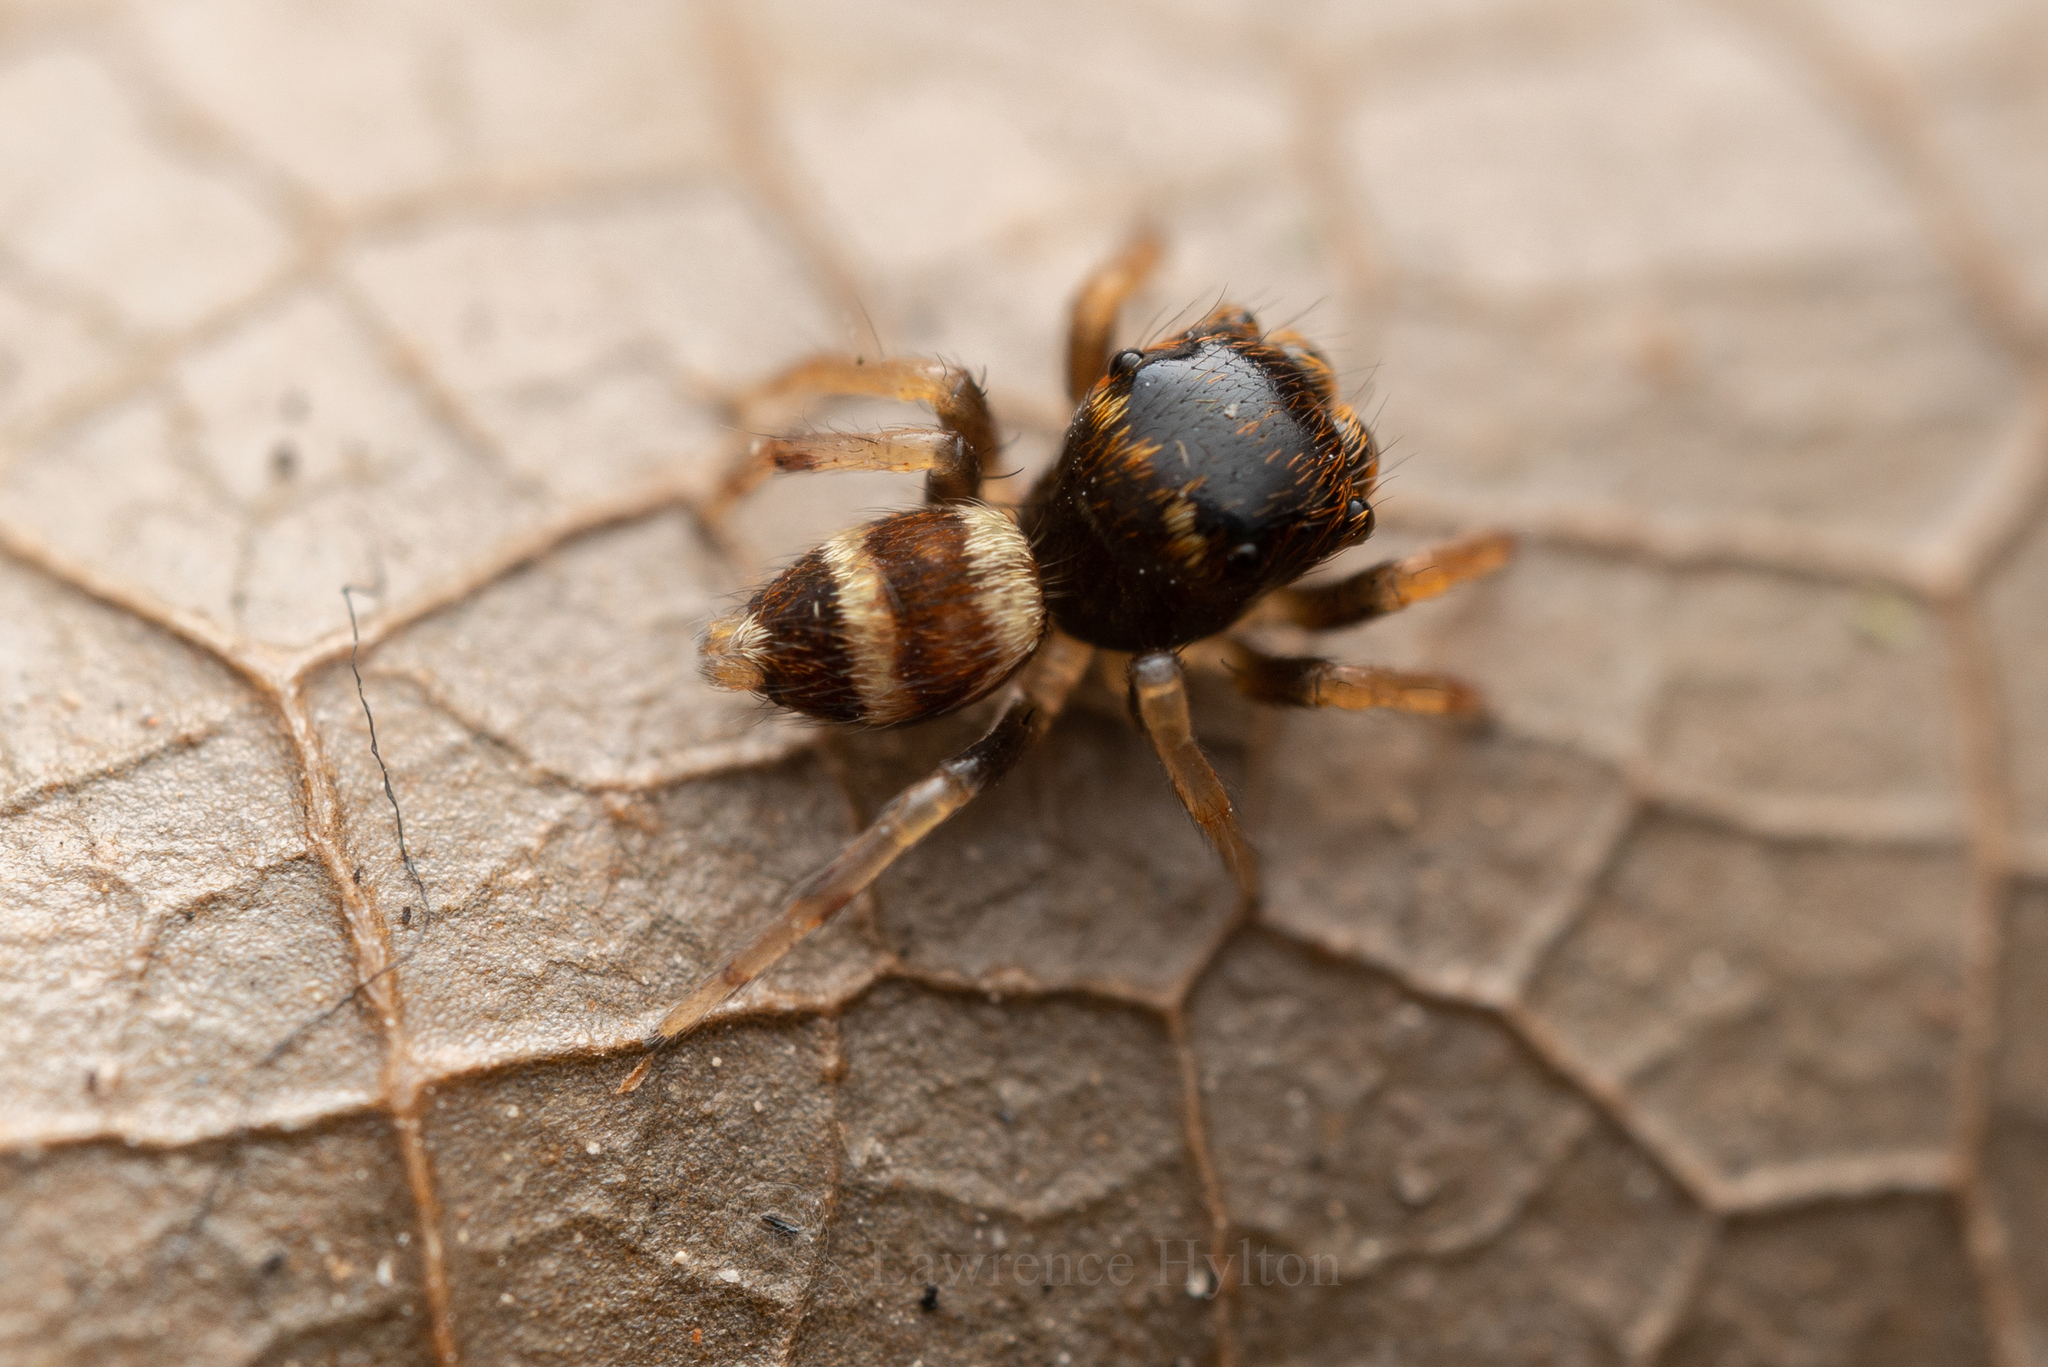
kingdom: Animalia
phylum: Arthropoda
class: Arachnida
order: Araneae
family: Salticidae
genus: Ptocasius
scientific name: Ptocasius strupifer
